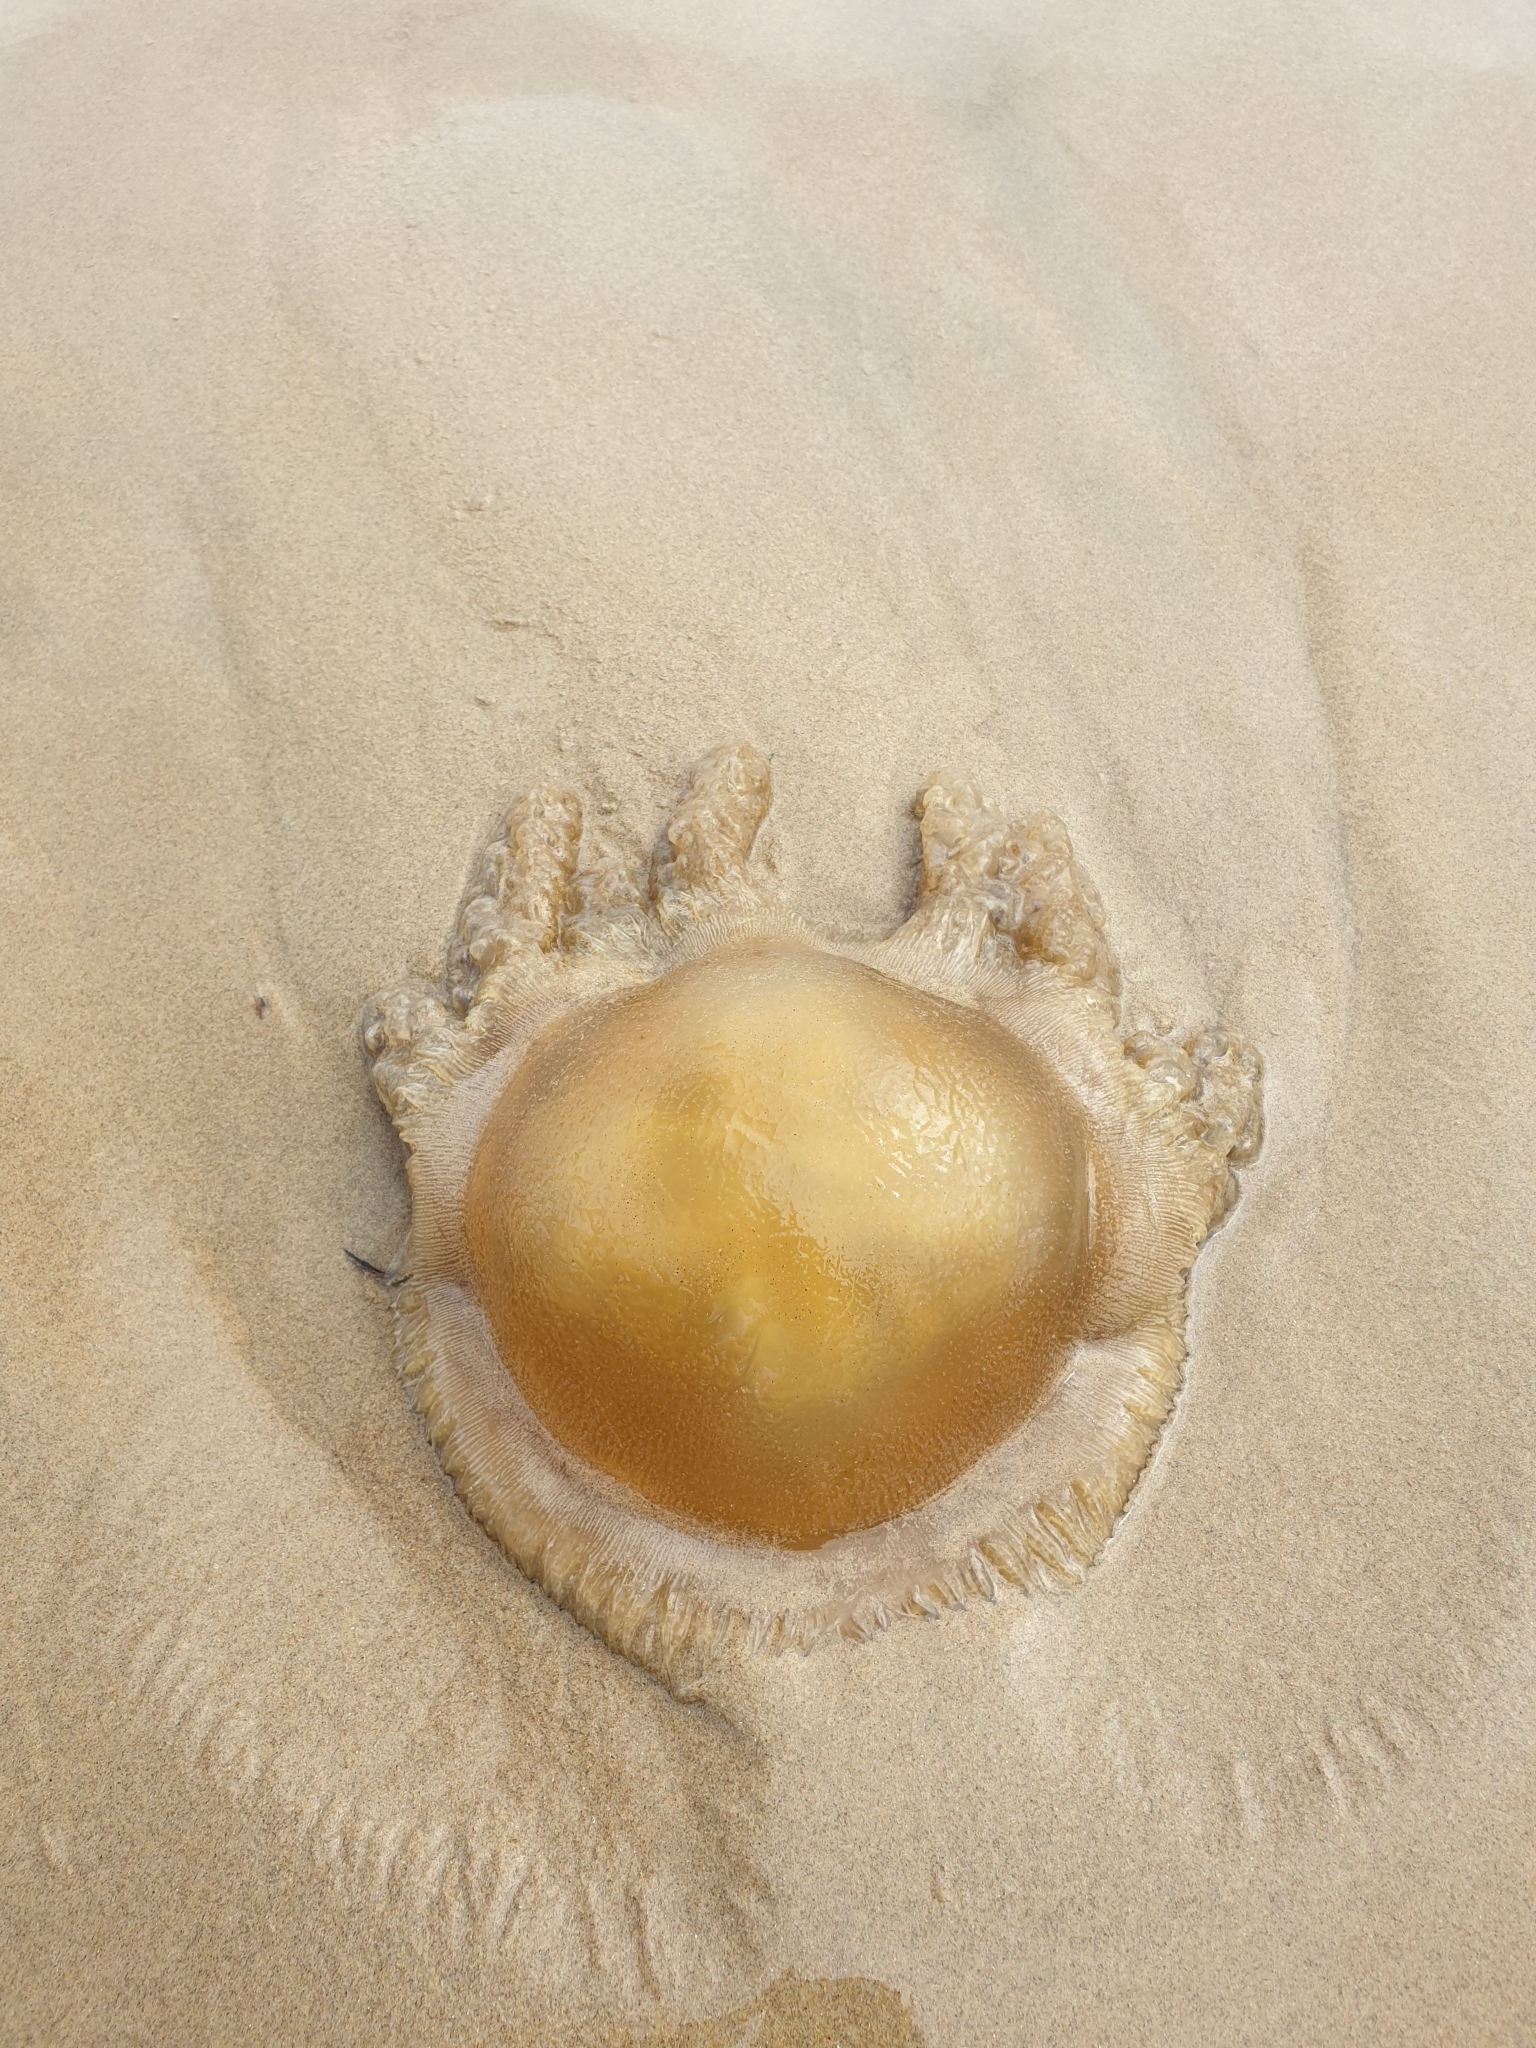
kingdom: Animalia
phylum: Cnidaria
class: Scyphozoa
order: Rhizostomeae
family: Catostylidae
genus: Catostylus
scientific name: Catostylus mosaicus
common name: Blue blubber
